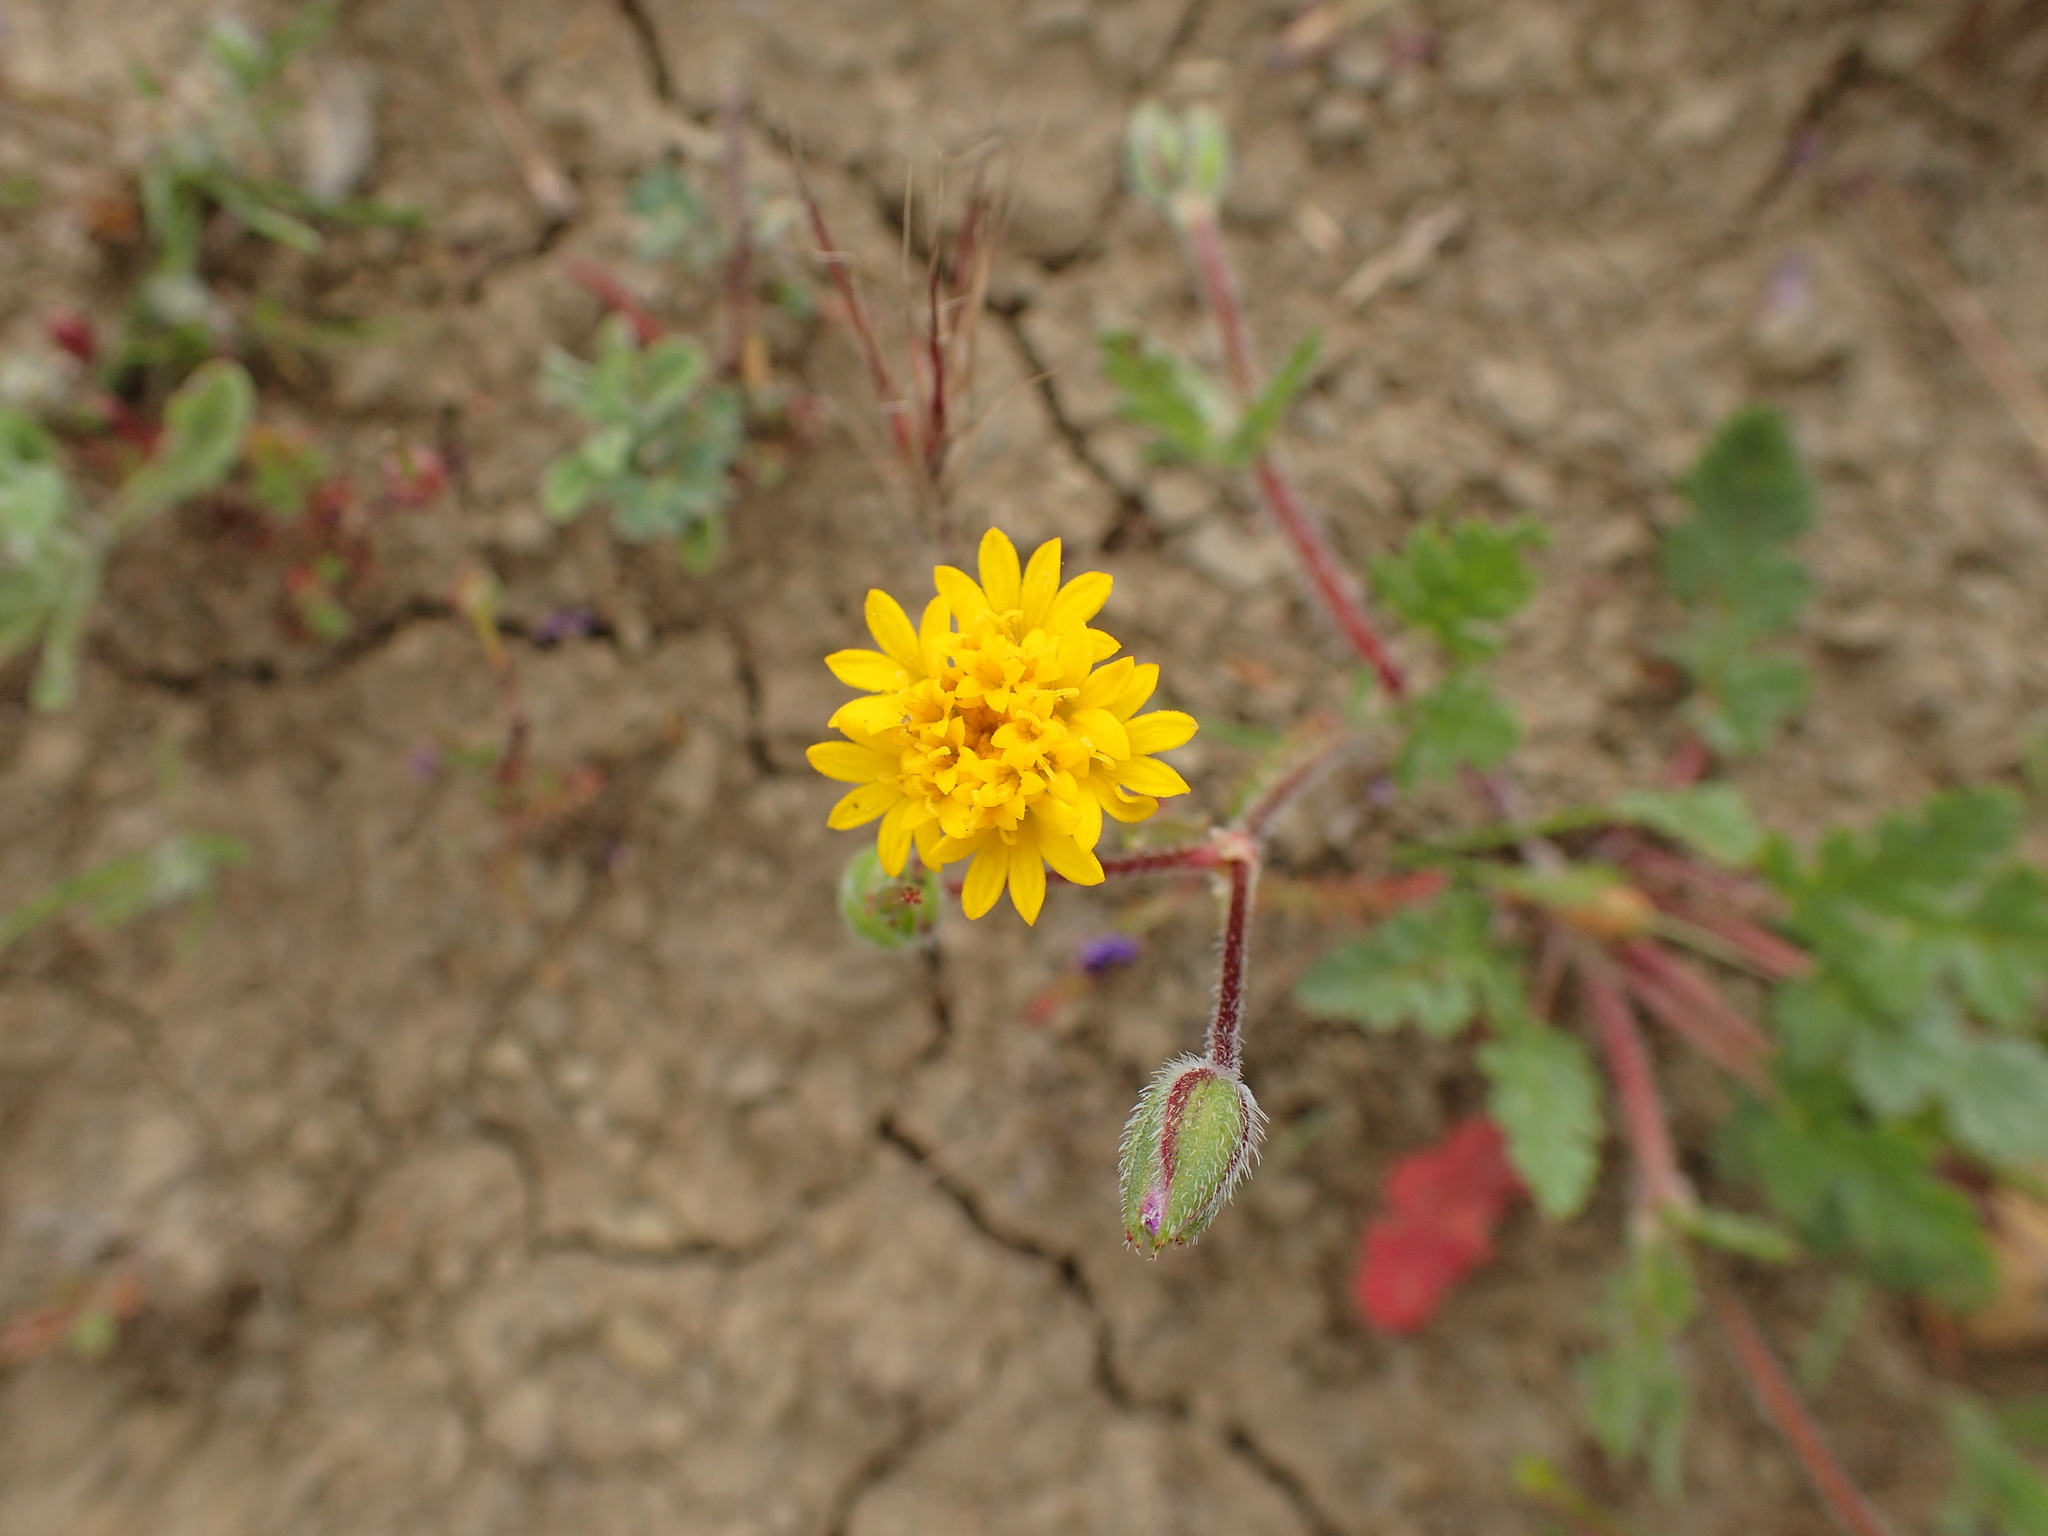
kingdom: Plantae
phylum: Tracheophyta
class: Magnoliopsida
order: Asterales
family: Asteraceae
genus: Chaenactis
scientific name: Chaenactis glabriuscula
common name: Yellow pincushion
